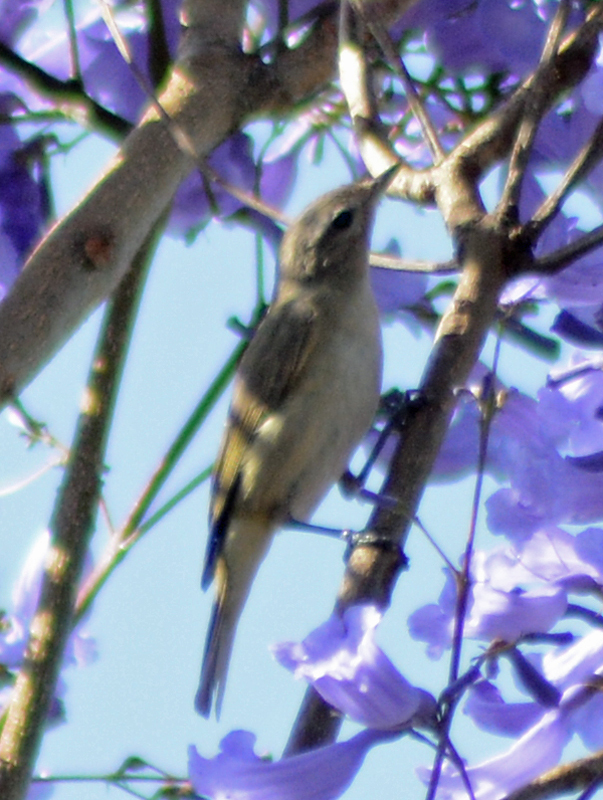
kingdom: Animalia
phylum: Chordata
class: Aves
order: Passeriformes
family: Vireonidae
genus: Vireo
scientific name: Vireo gilvus
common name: Warbling vireo
